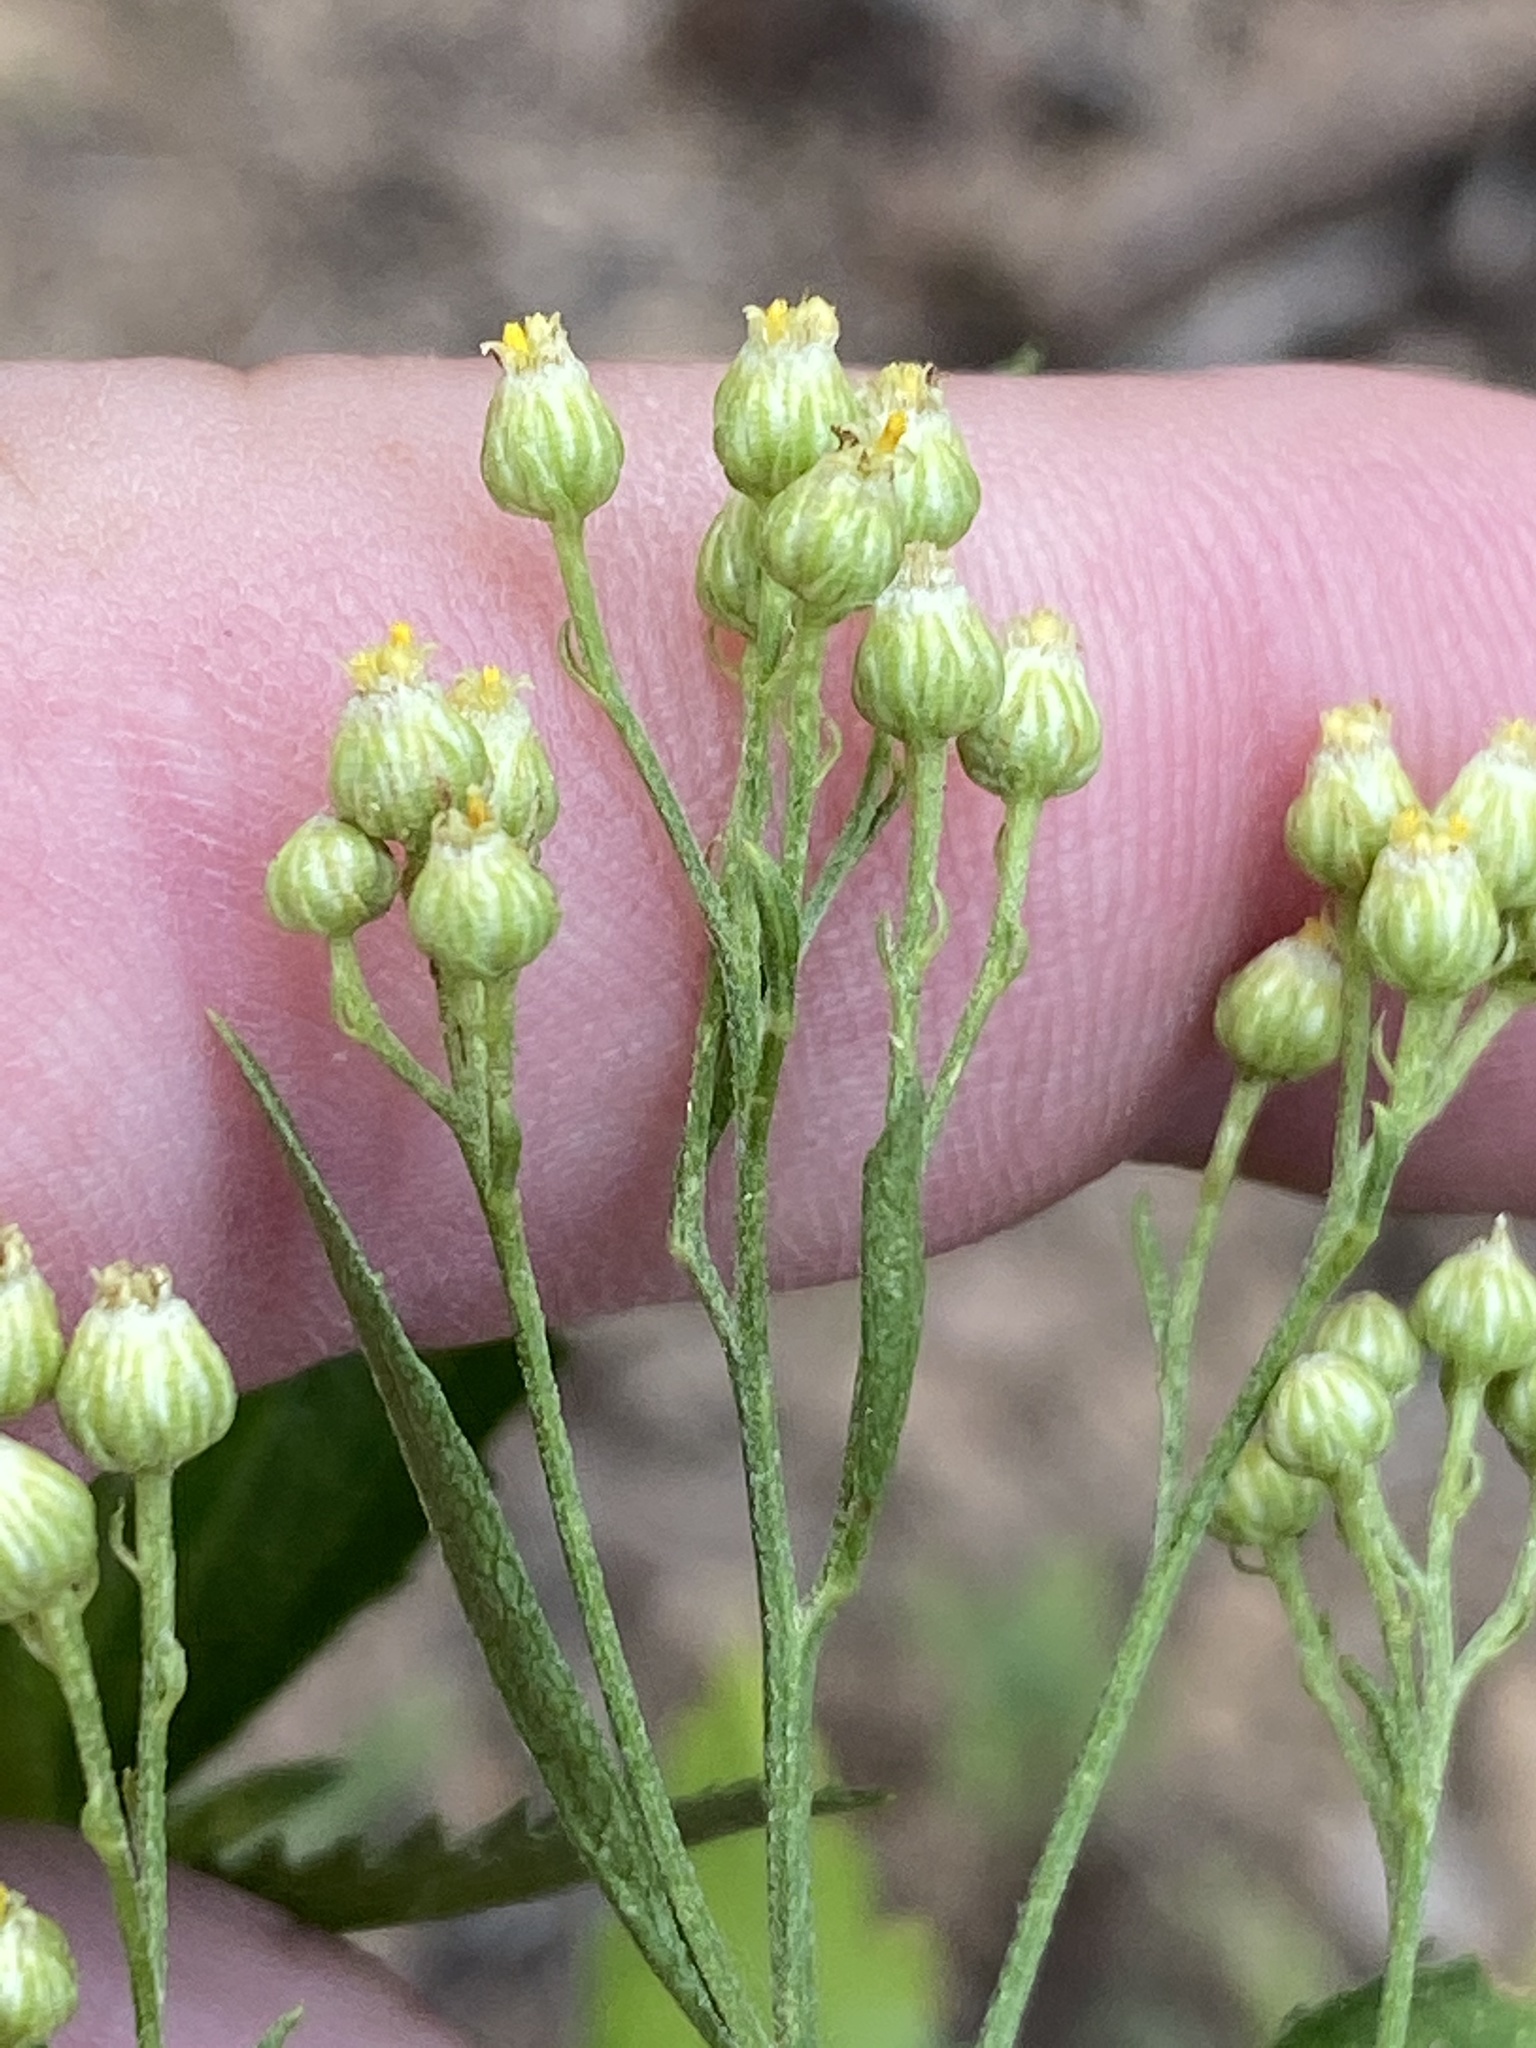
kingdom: Plantae
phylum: Tracheophyta
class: Magnoliopsida
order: Asterales
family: Asteraceae
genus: Nidorella
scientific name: Nidorella ivifolia
